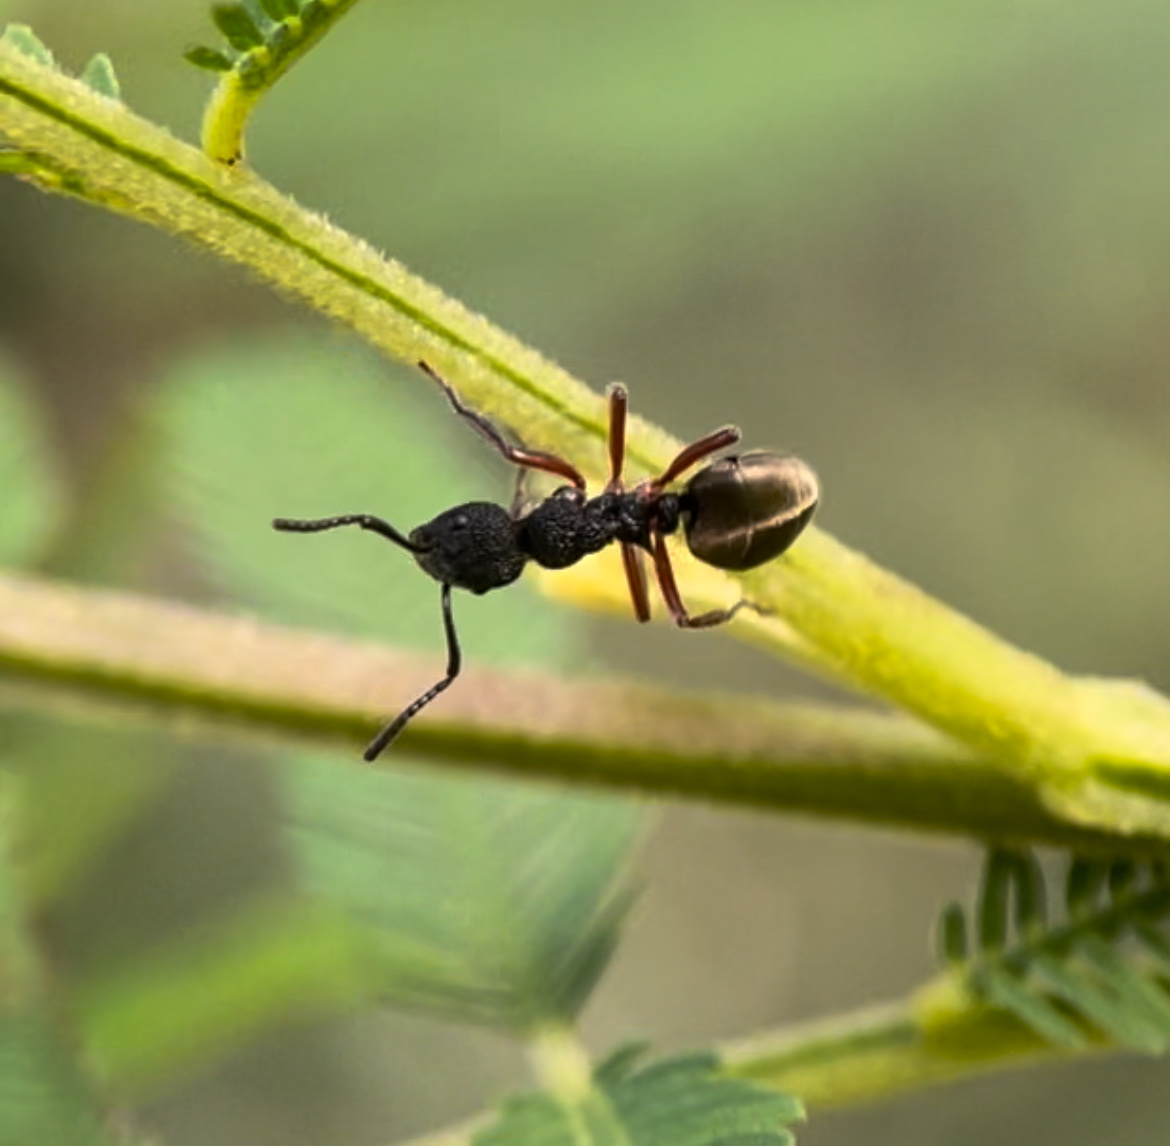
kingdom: Animalia
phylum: Arthropoda
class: Insecta
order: Hymenoptera
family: Formicidae
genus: Dolichoderus
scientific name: Dolichoderus scabridus
